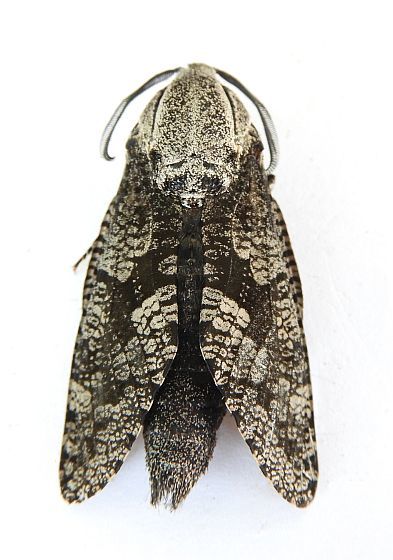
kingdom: Animalia
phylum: Arthropoda
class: Insecta
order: Lepidoptera
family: Cossidae
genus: Prionoxystus
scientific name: Prionoxystus robiniae
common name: Carpenterworm
